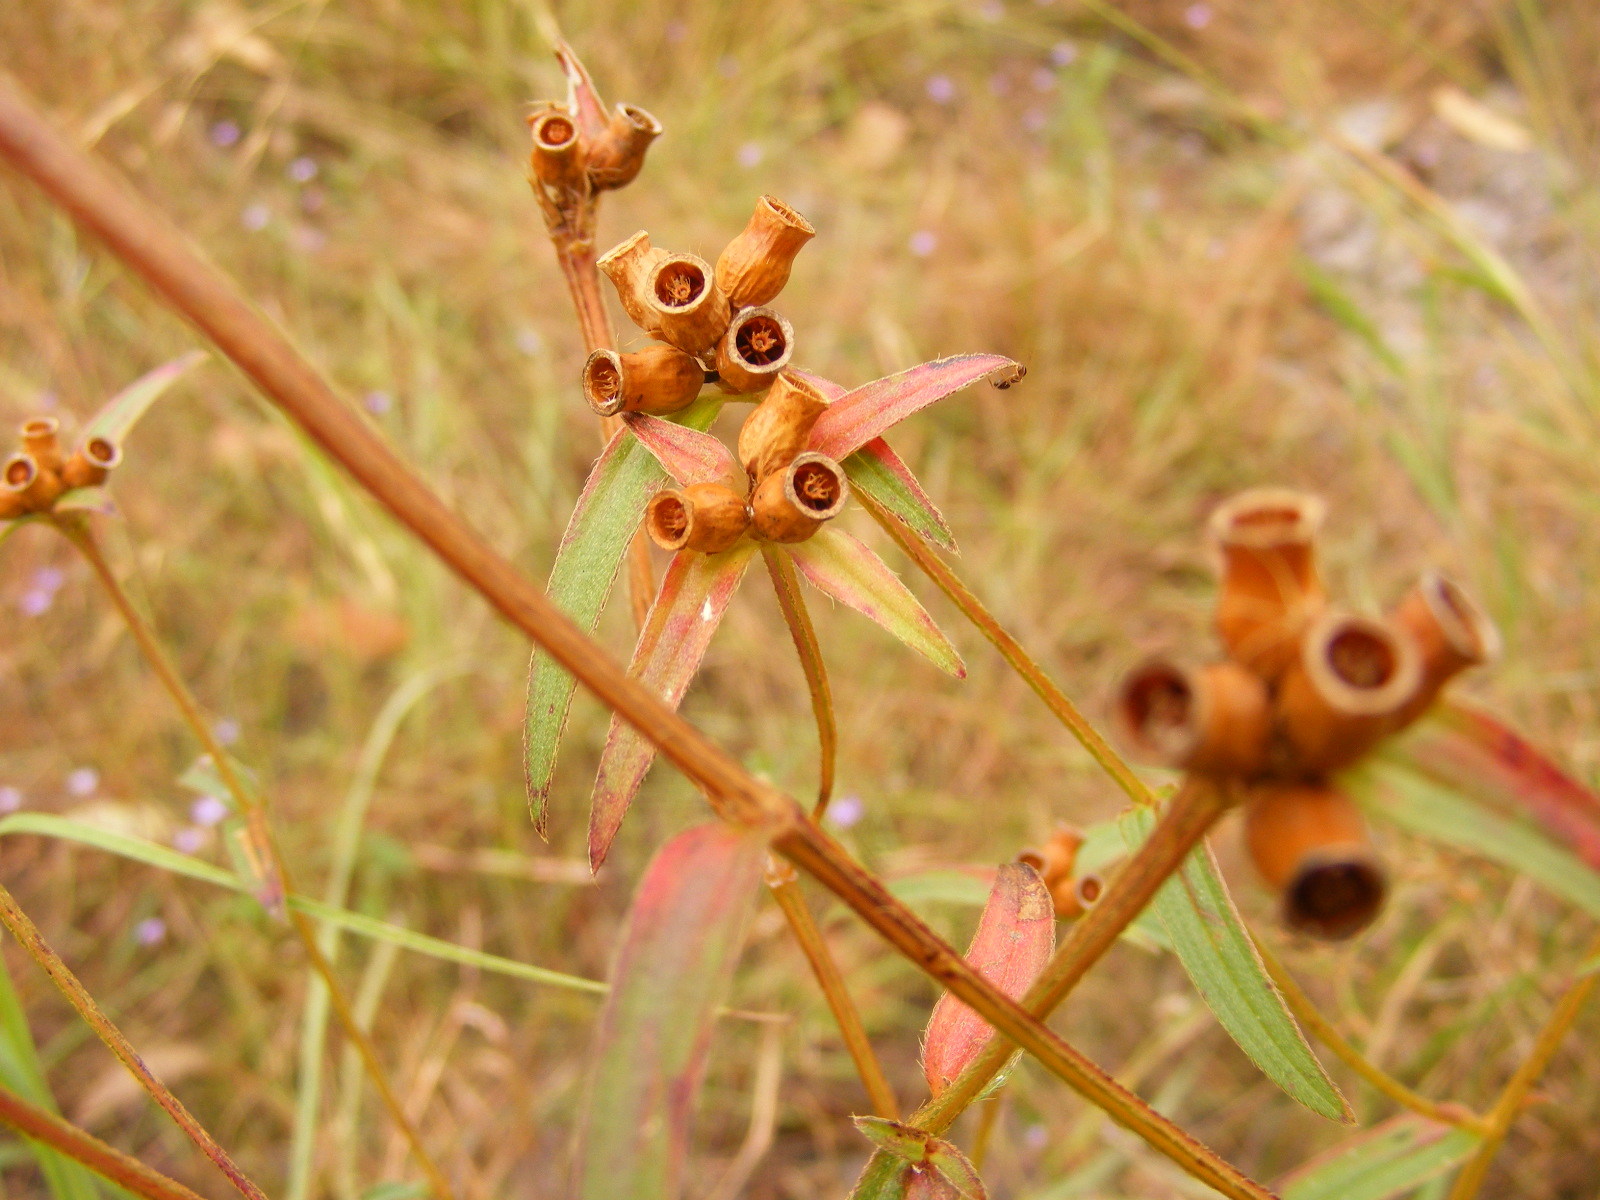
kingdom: Plantae
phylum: Tracheophyta
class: Magnoliopsida
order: Myrtales
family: Melastomataceae
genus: Osbeckia
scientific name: Osbeckia chinensis
